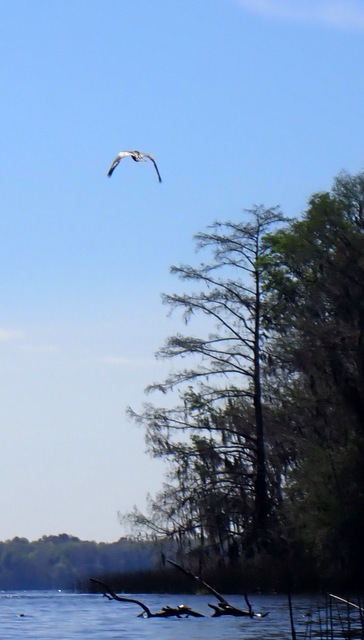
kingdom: Animalia
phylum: Chordata
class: Aves
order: Accipitriformes
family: Pandionidae
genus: Pandion
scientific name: Pandion haliaetus
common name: Osprey
